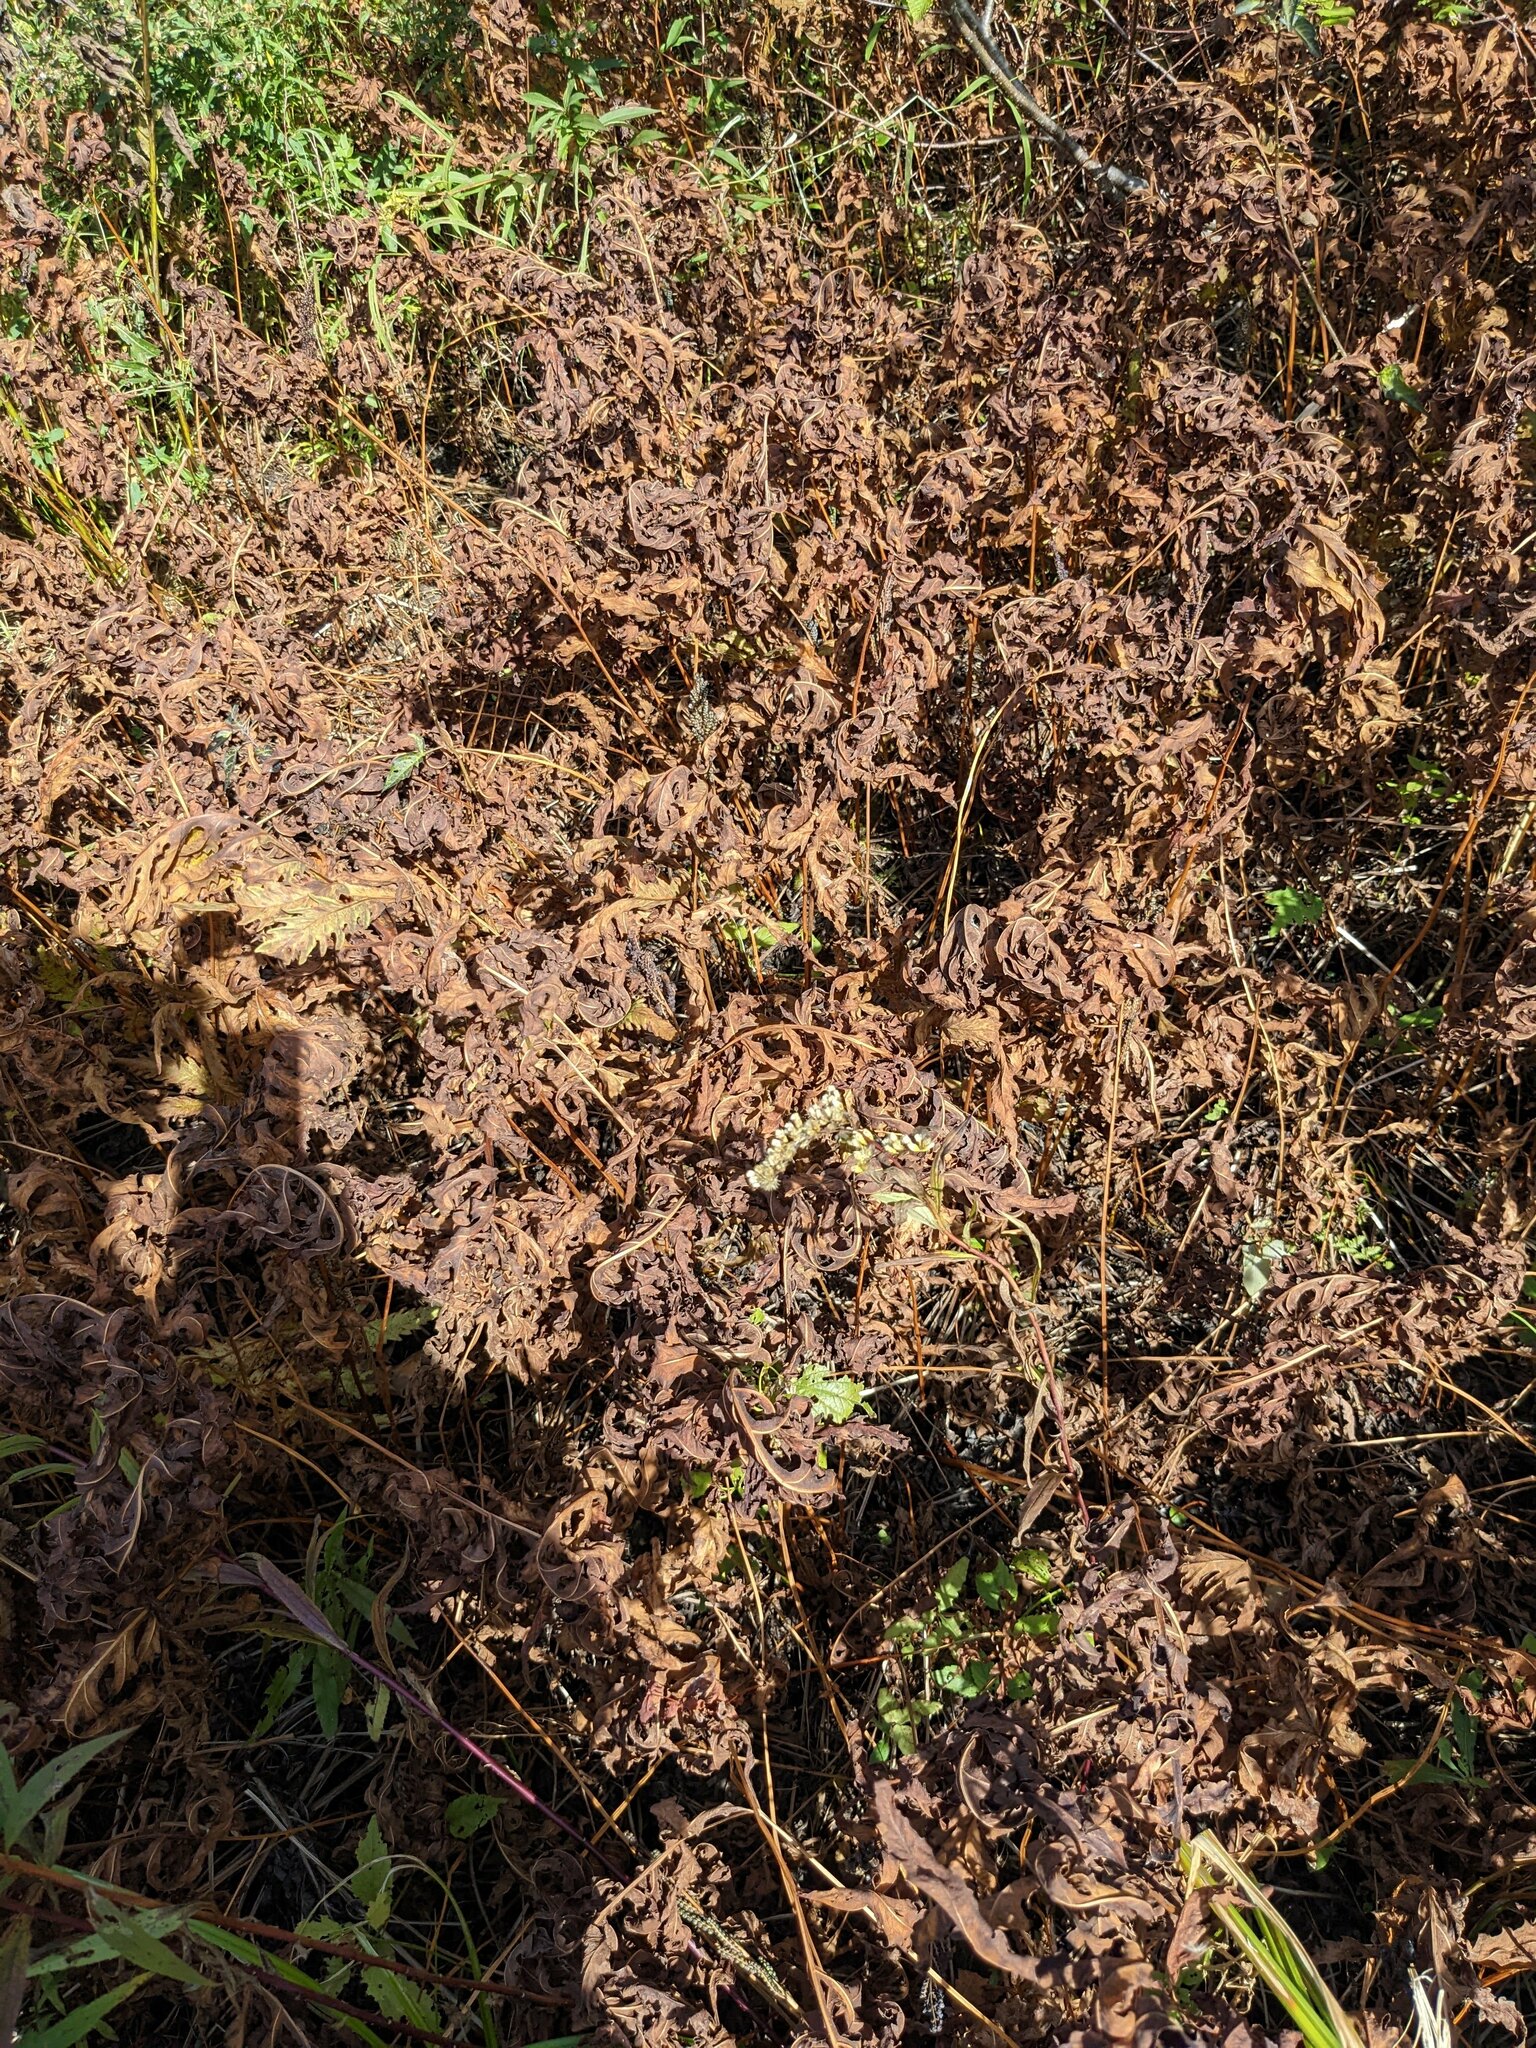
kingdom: Plantae
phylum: Tracheophyta
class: Polypodiopsida
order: Polypodiales
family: Dennstaedtiaceae
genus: Pteridium
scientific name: Pteridium aquilinum
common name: Bracken
